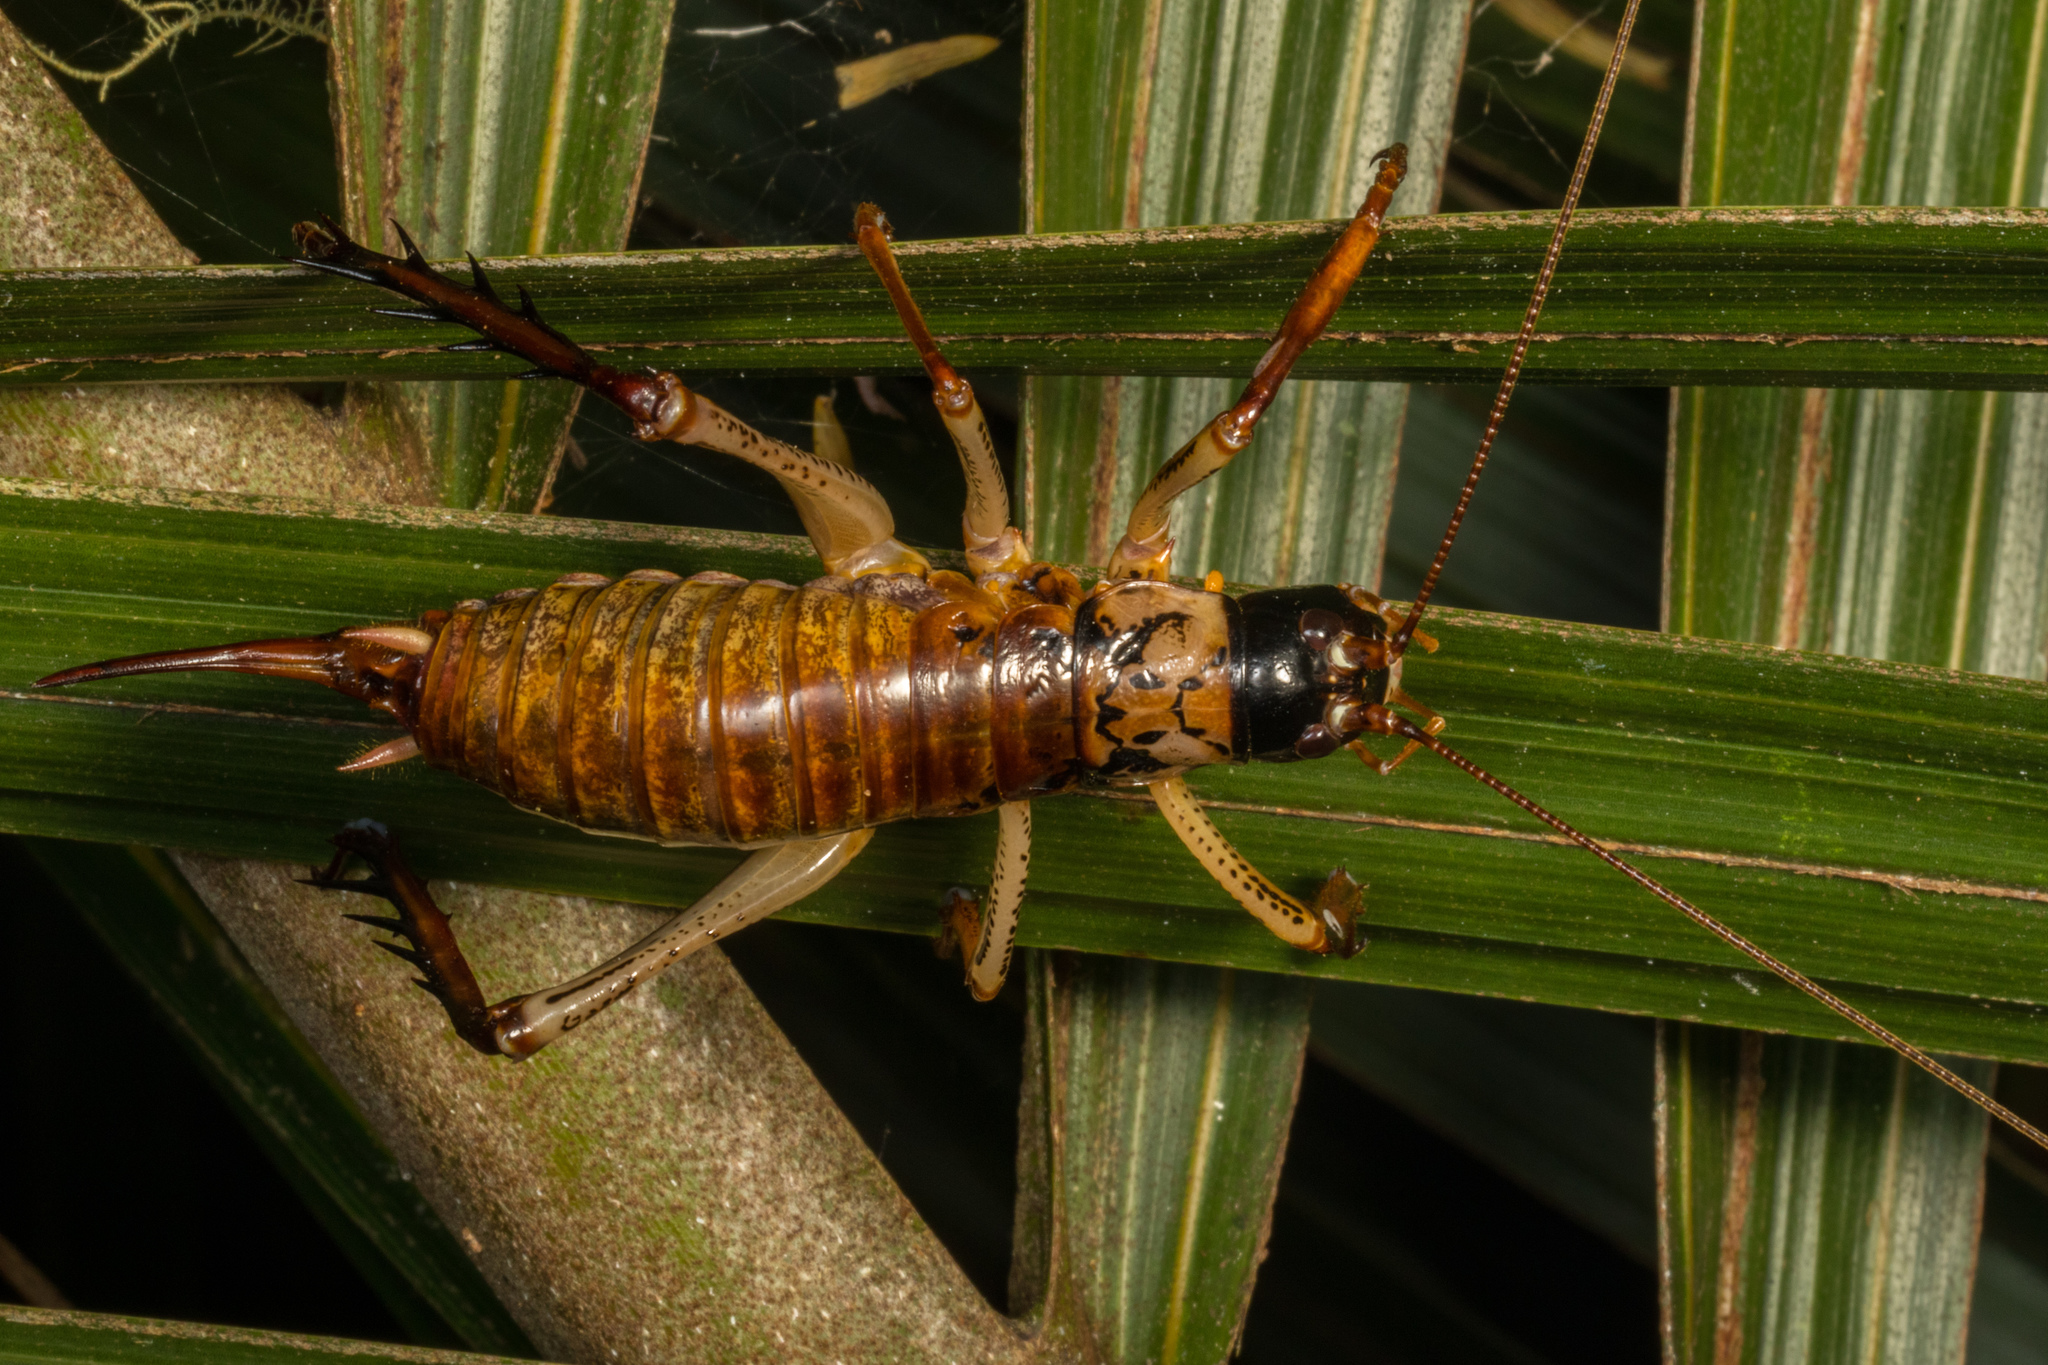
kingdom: Animalia
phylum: Arthropoda
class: Insecta
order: Orthoptera
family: Anostostomatidae
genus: Hemideina
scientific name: Hemideina thoracica
